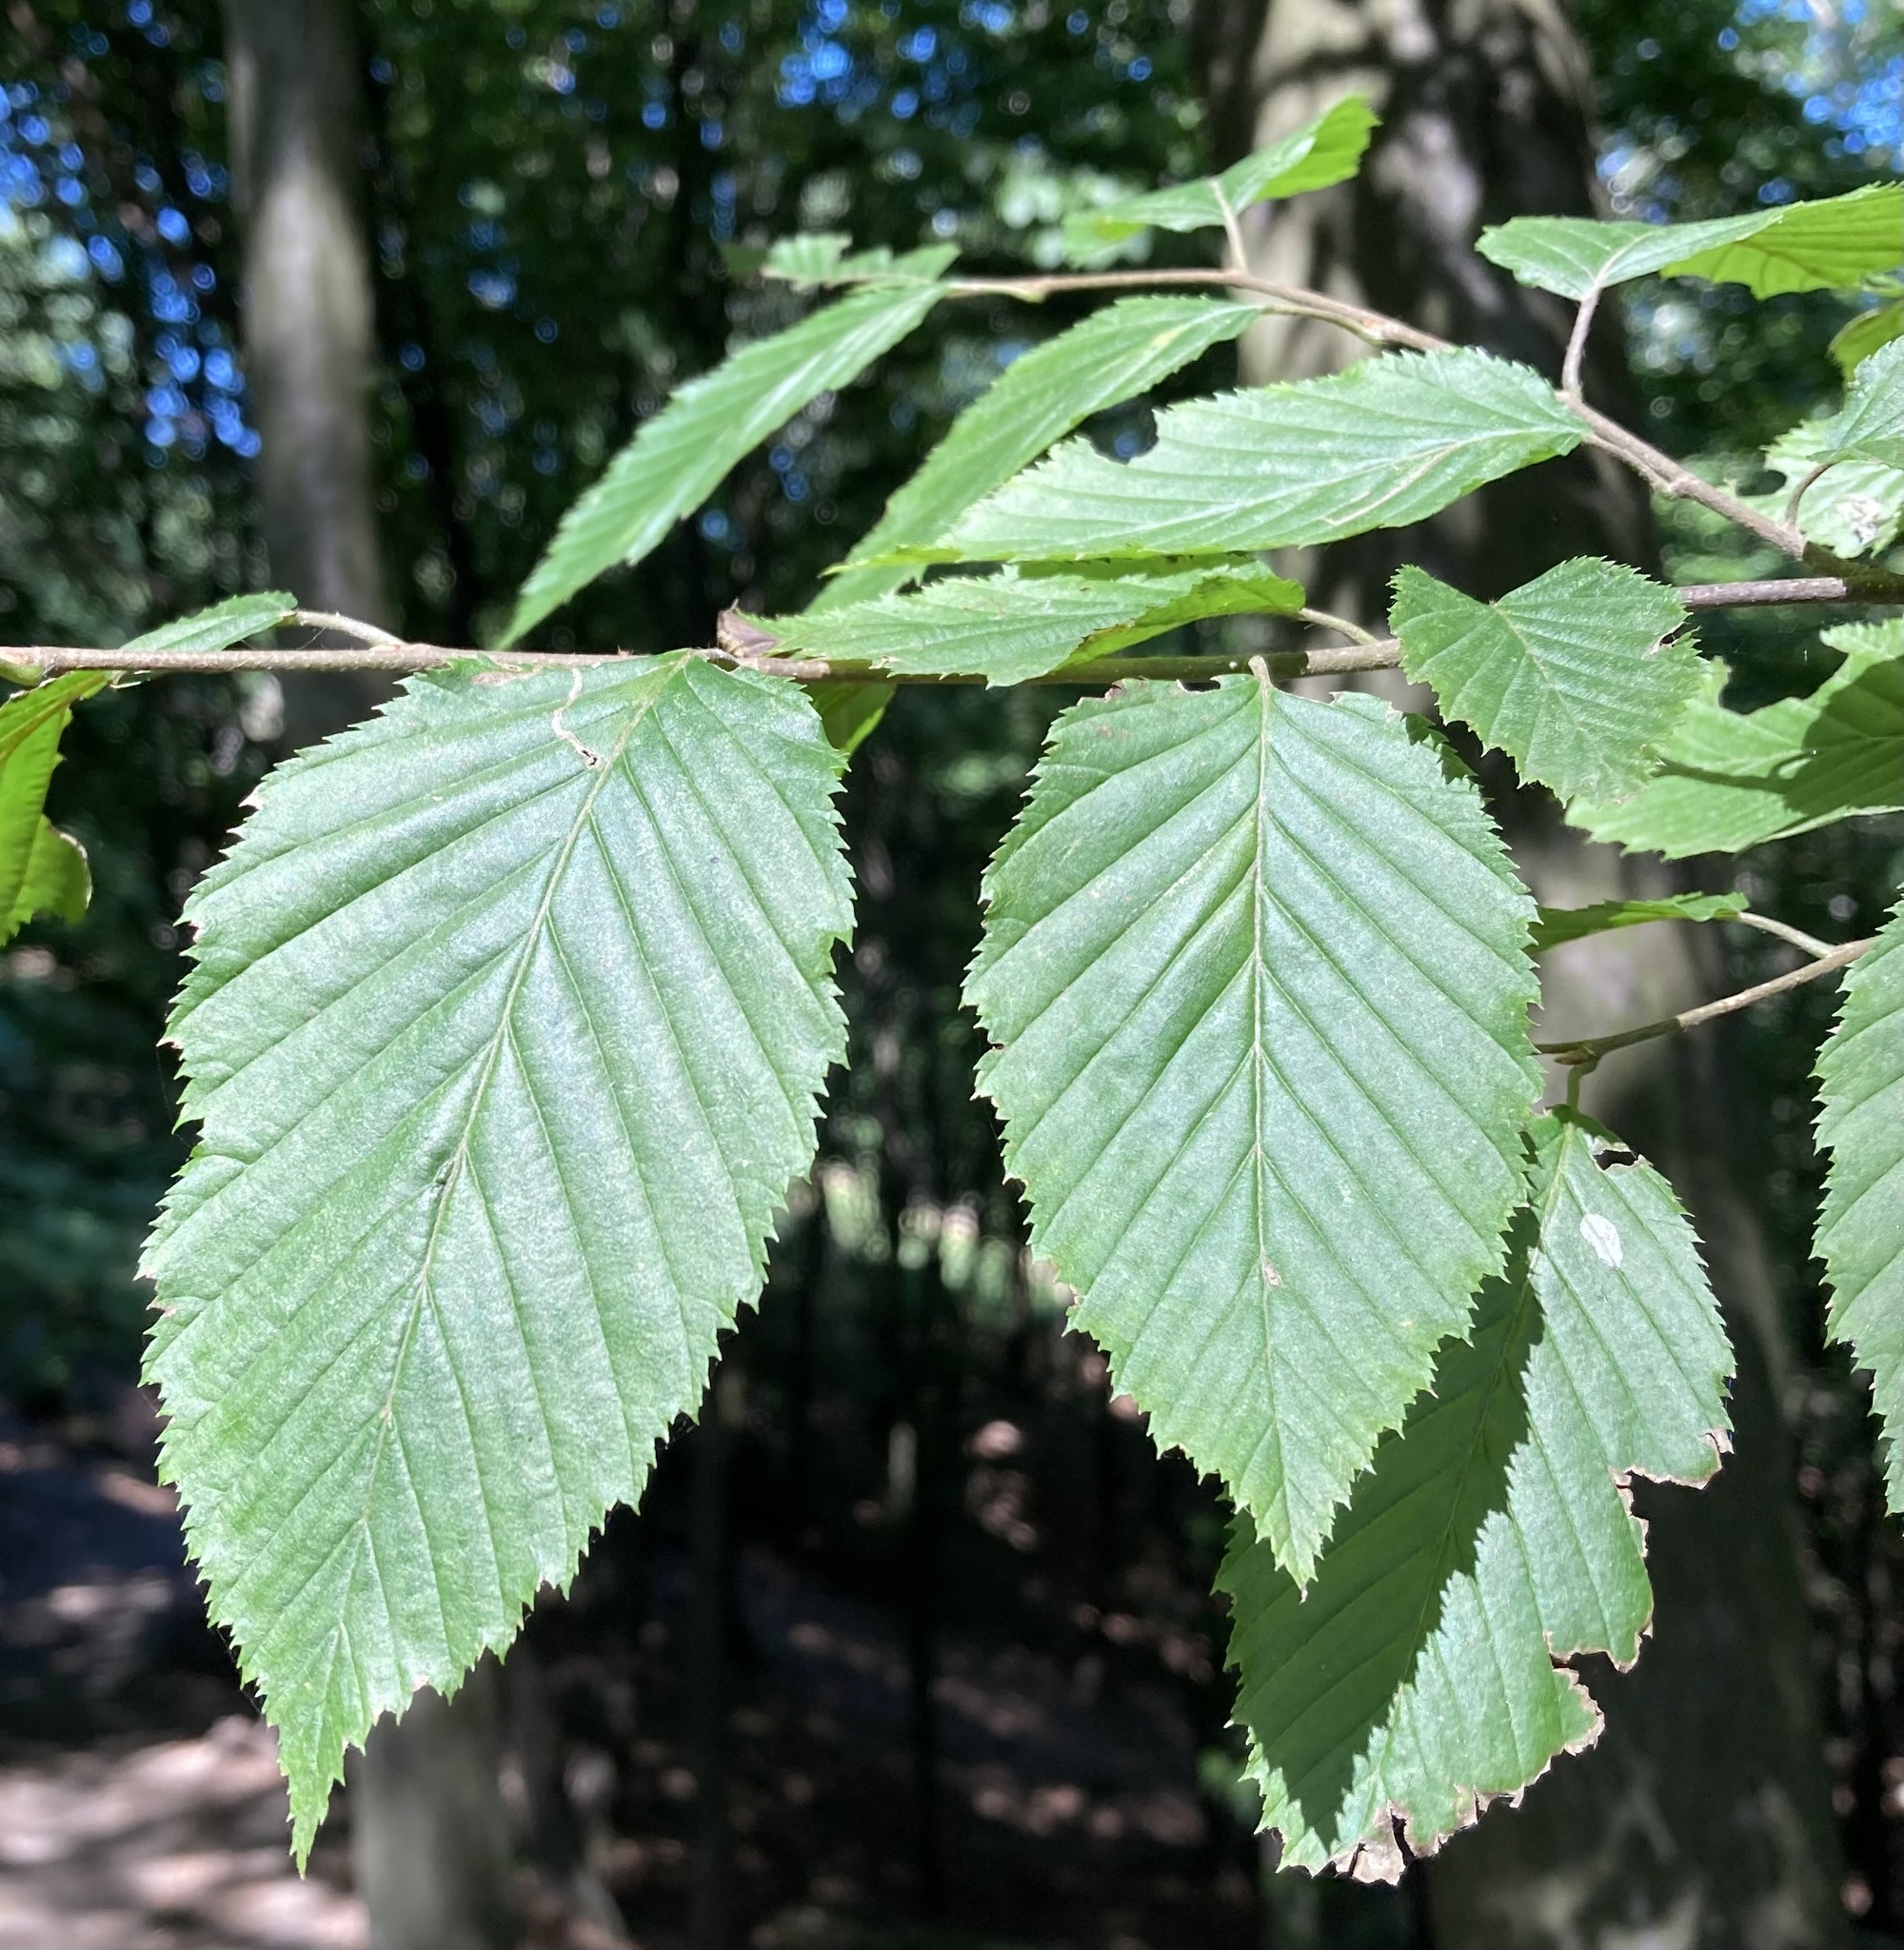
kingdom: Plantae
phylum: Tracheophyta
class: Magnoliopsida
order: Fagales
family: Betulaceae
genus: Carpinus
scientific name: Carpinus betulus
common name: Hornbeam
